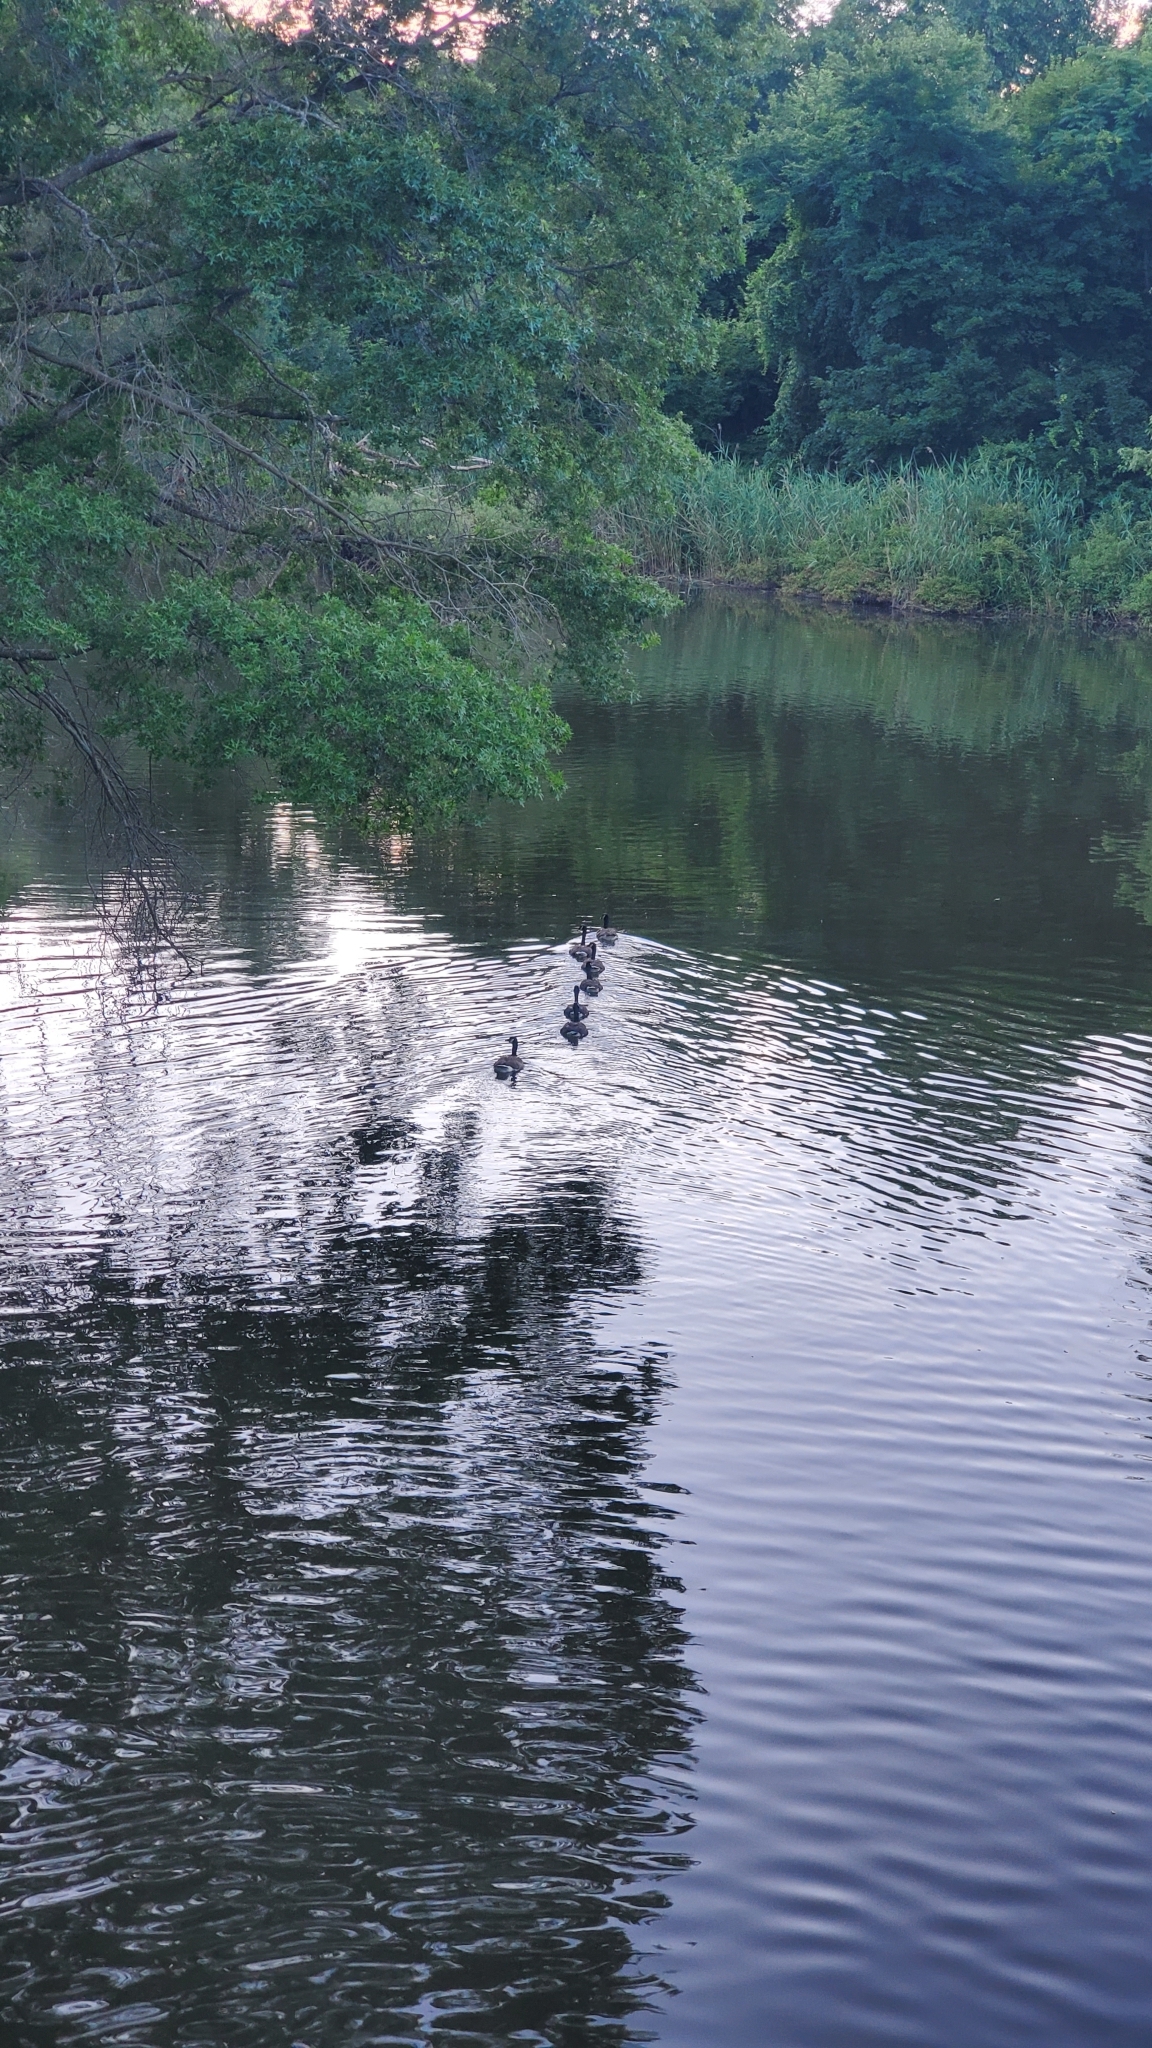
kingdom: Animalia
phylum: Chordata
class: Aves
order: Anseriformes
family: Anatidae
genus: Branta
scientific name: Branta canadensis
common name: Canada goose
